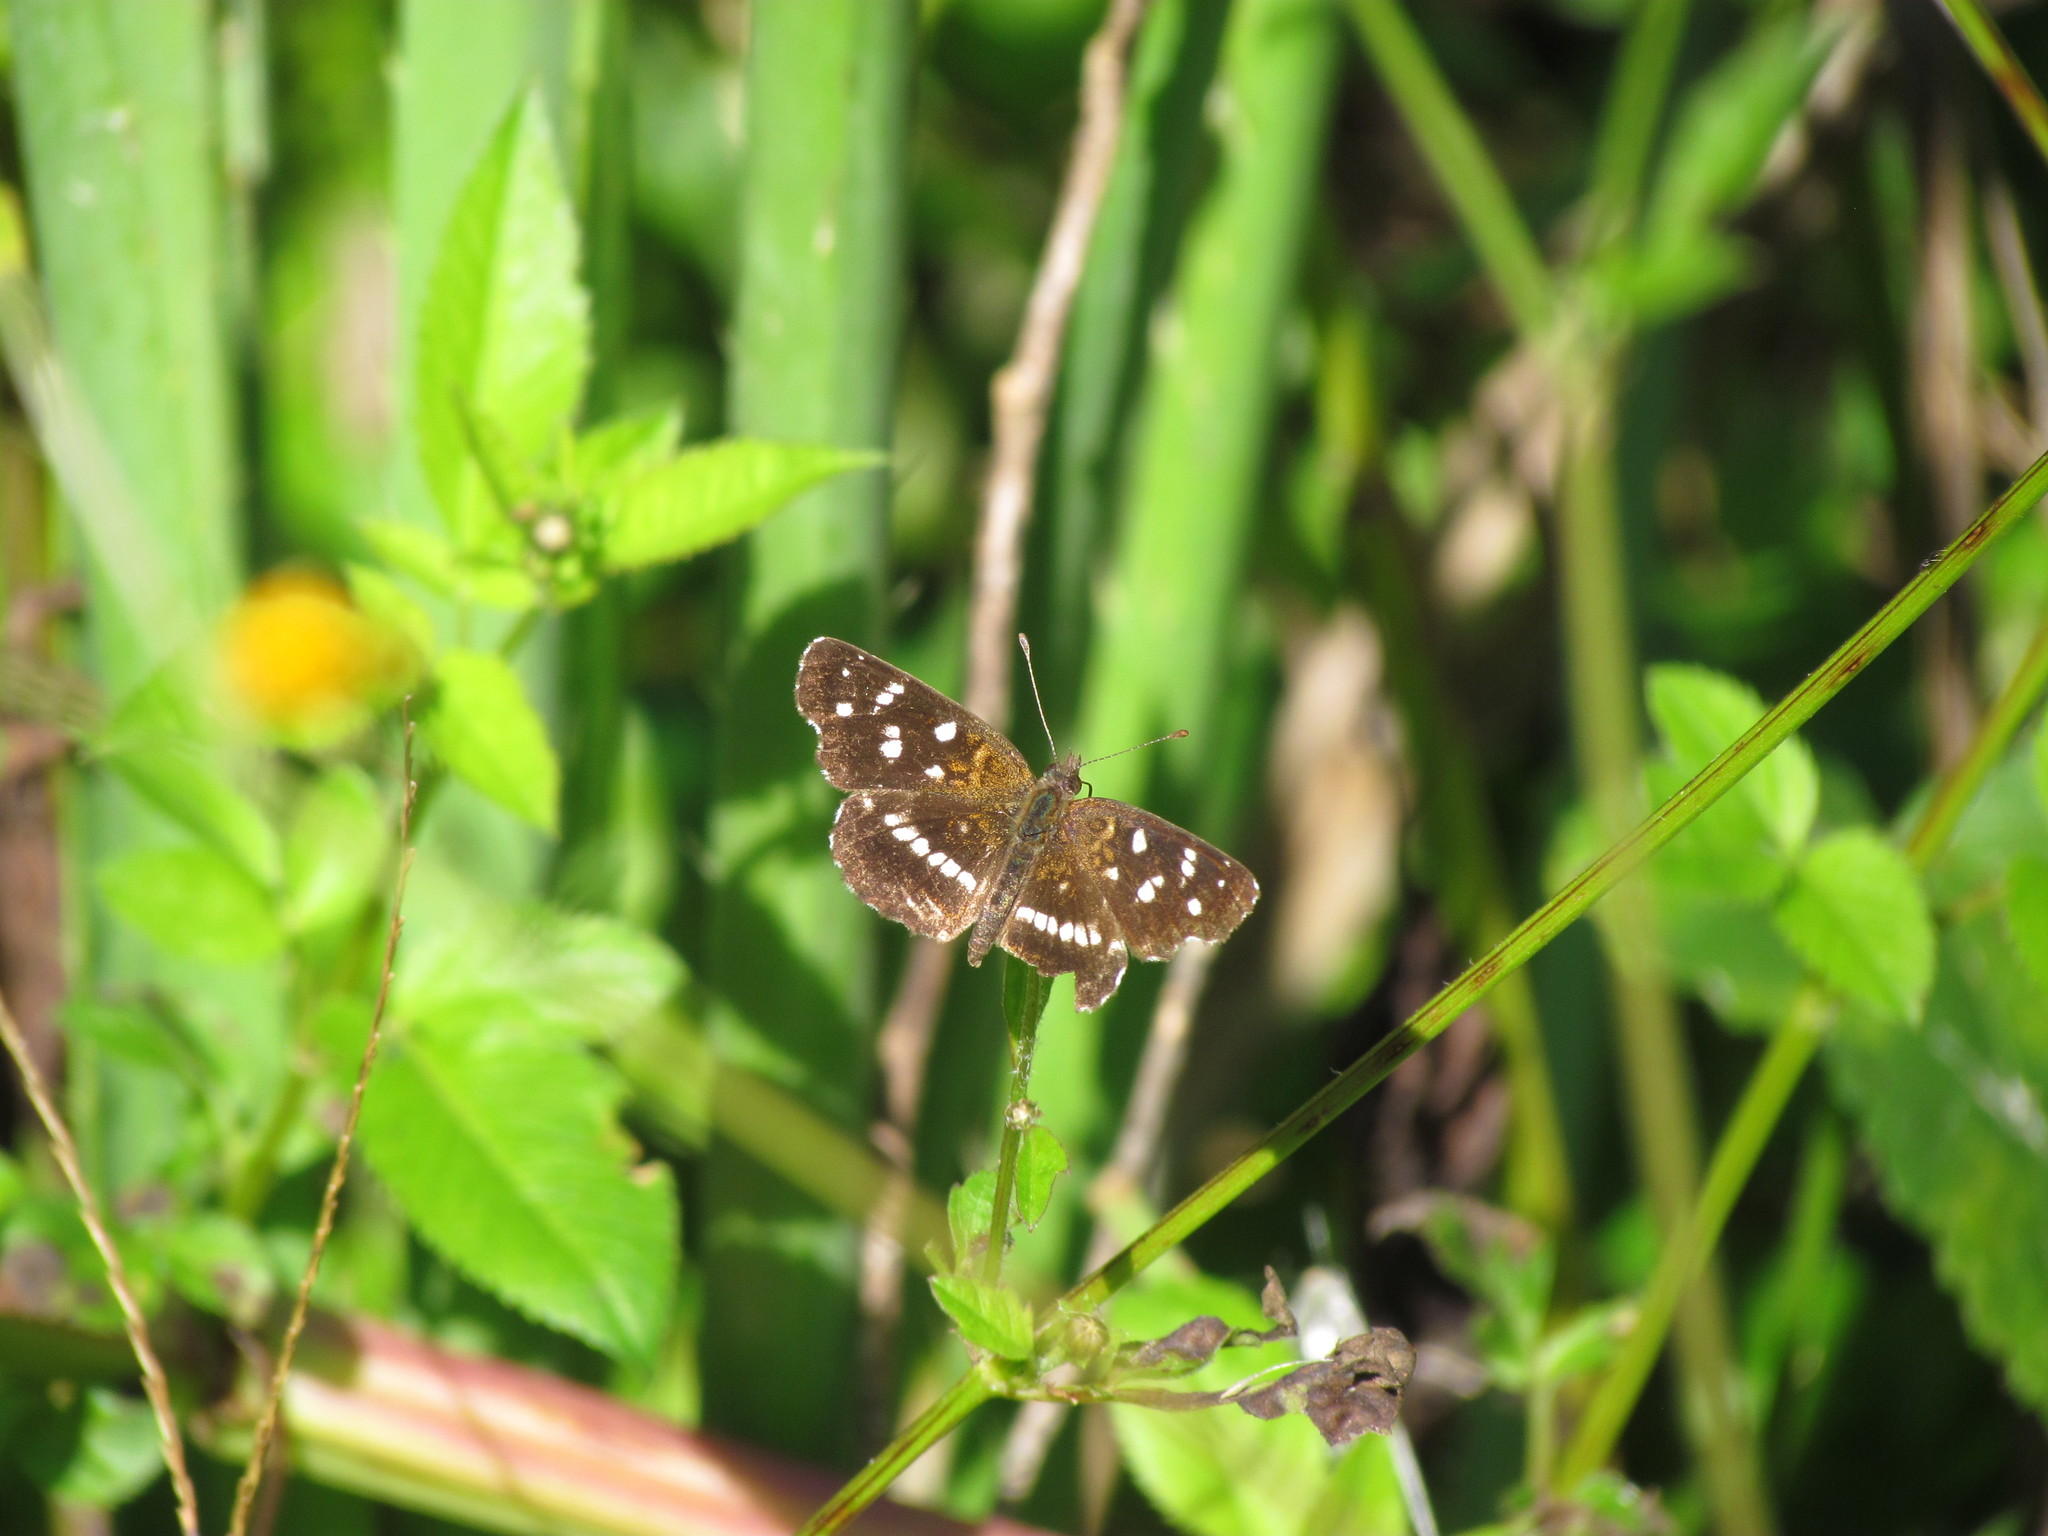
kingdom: Animalia
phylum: Arthropoda
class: Insecta
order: Lepidoptera
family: Nymphalidae
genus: Ortilia
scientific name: Ortilia ithra
